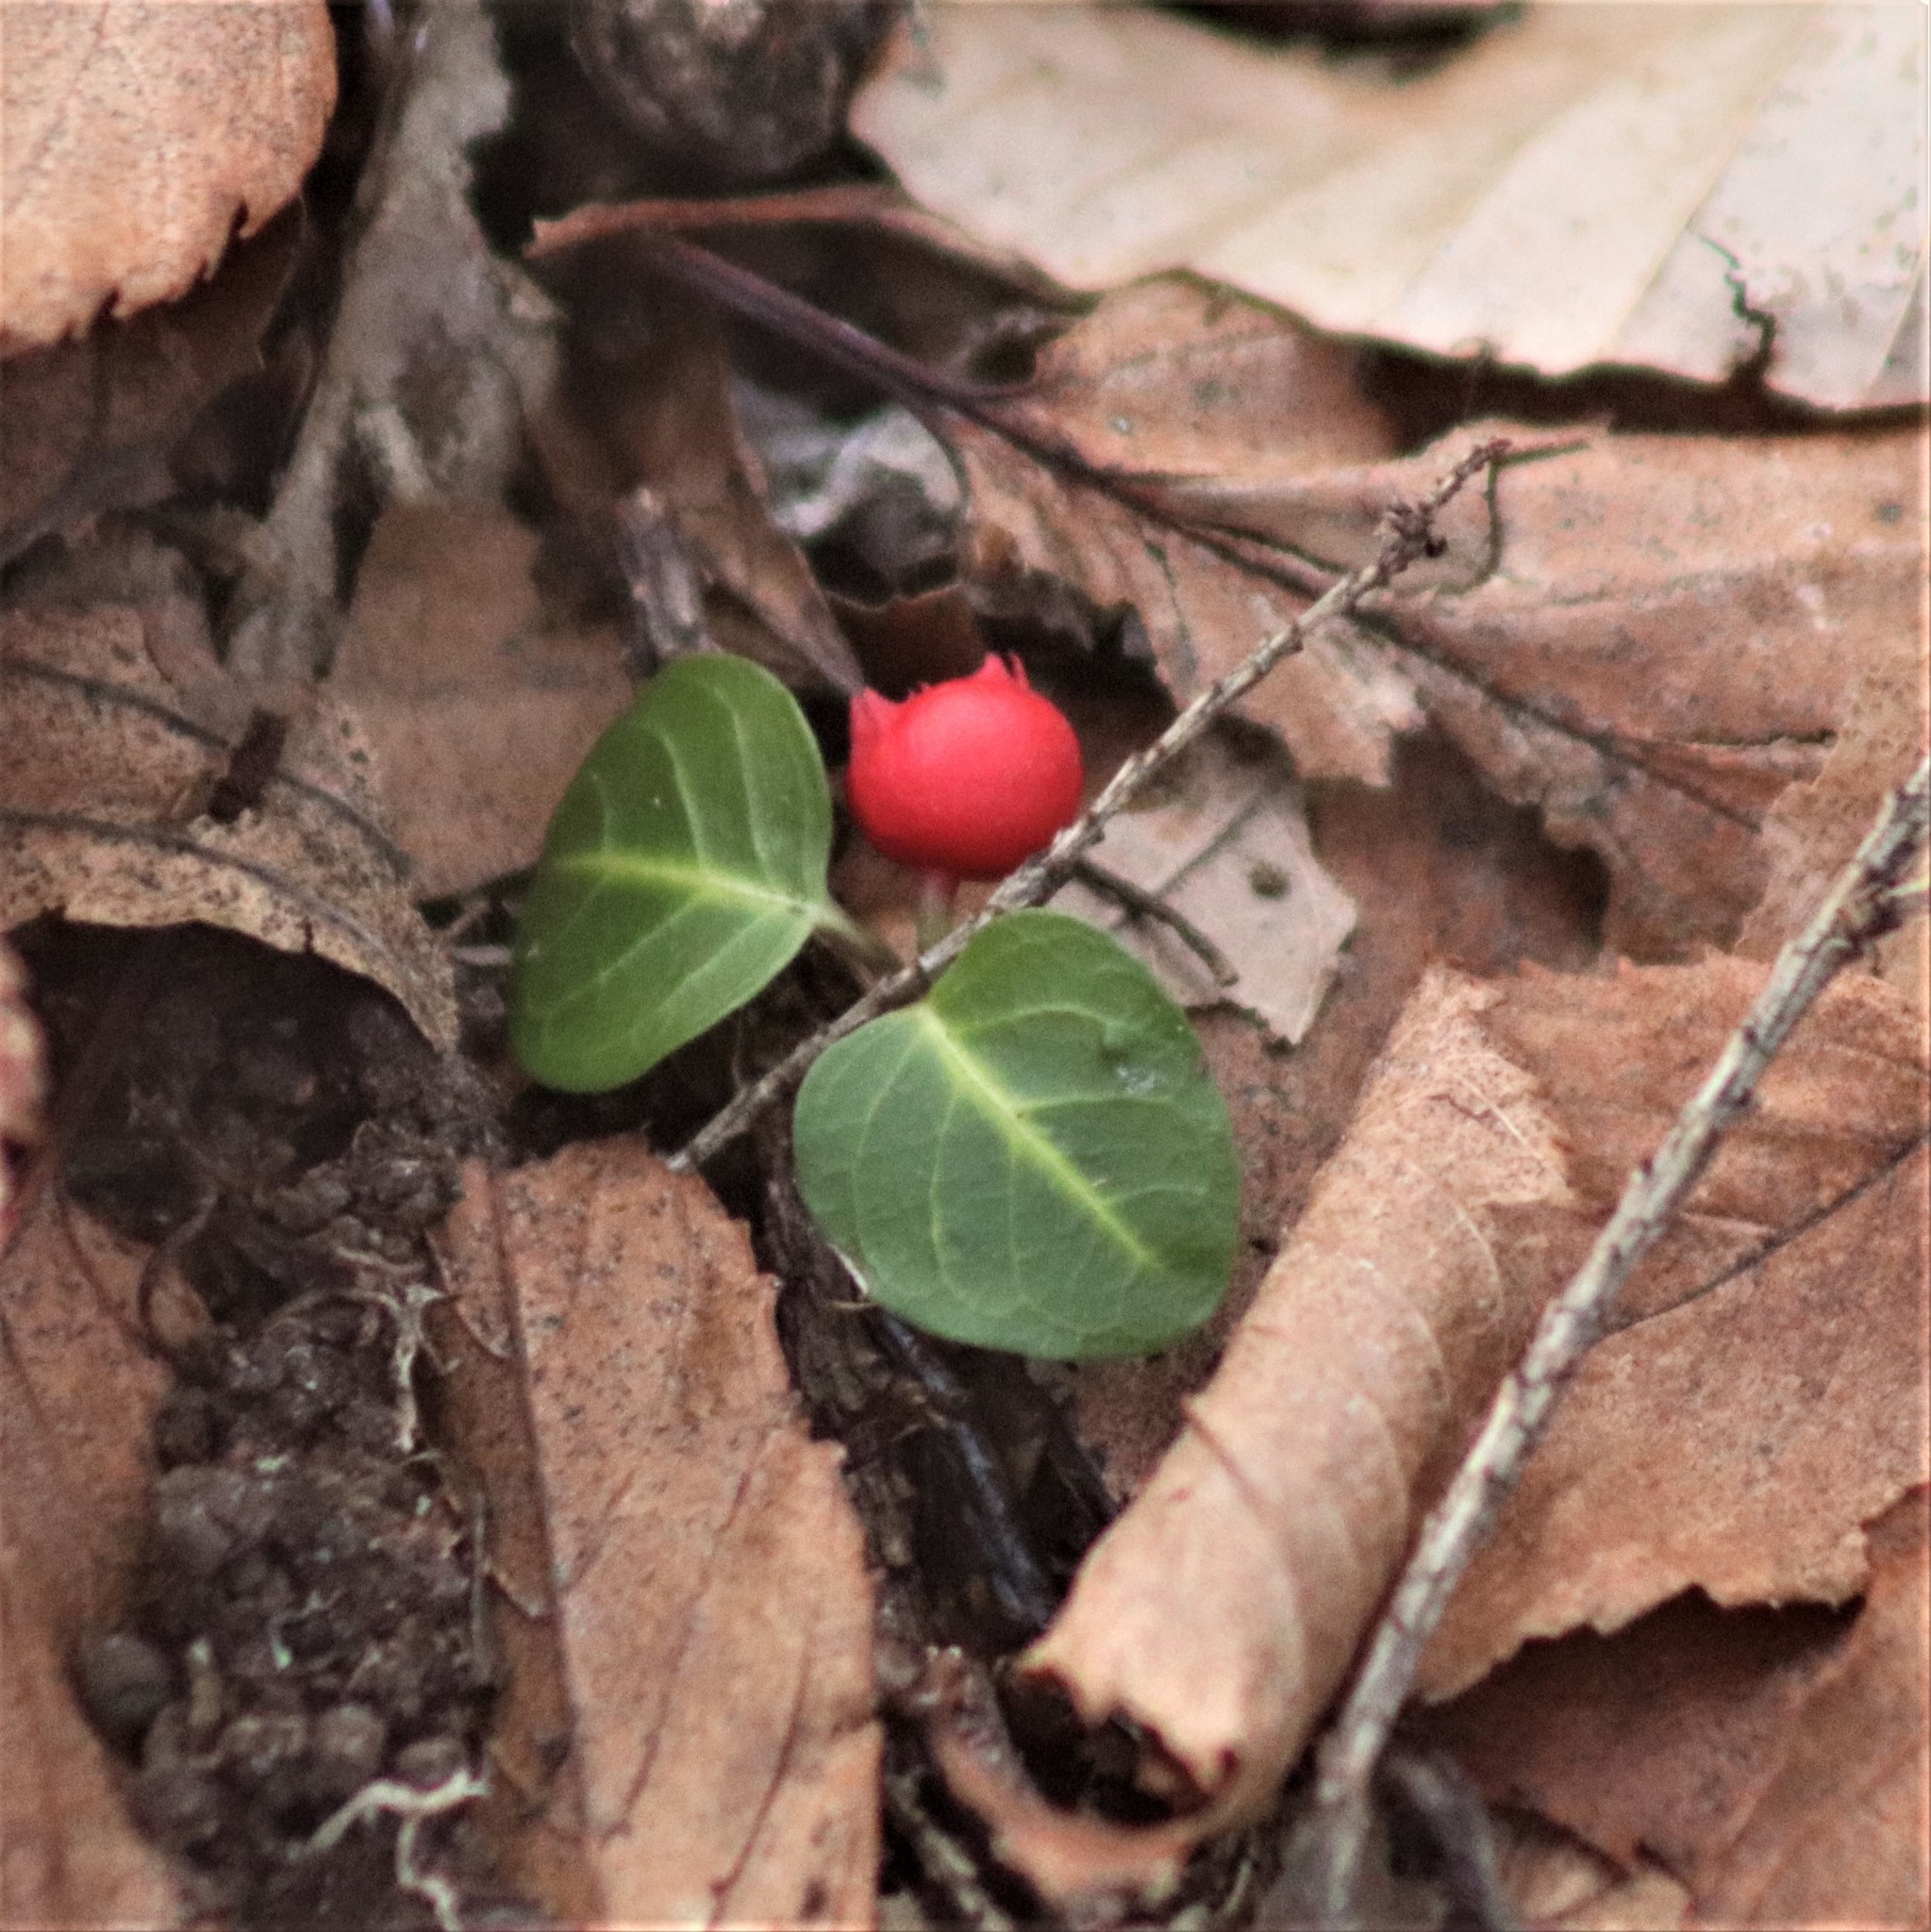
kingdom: Plantae
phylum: Tracheophyta
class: Magnoliopsida
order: Gentianales
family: Rubiaceae
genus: Mitchella
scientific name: Mitchella repens
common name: Partridge-berry
